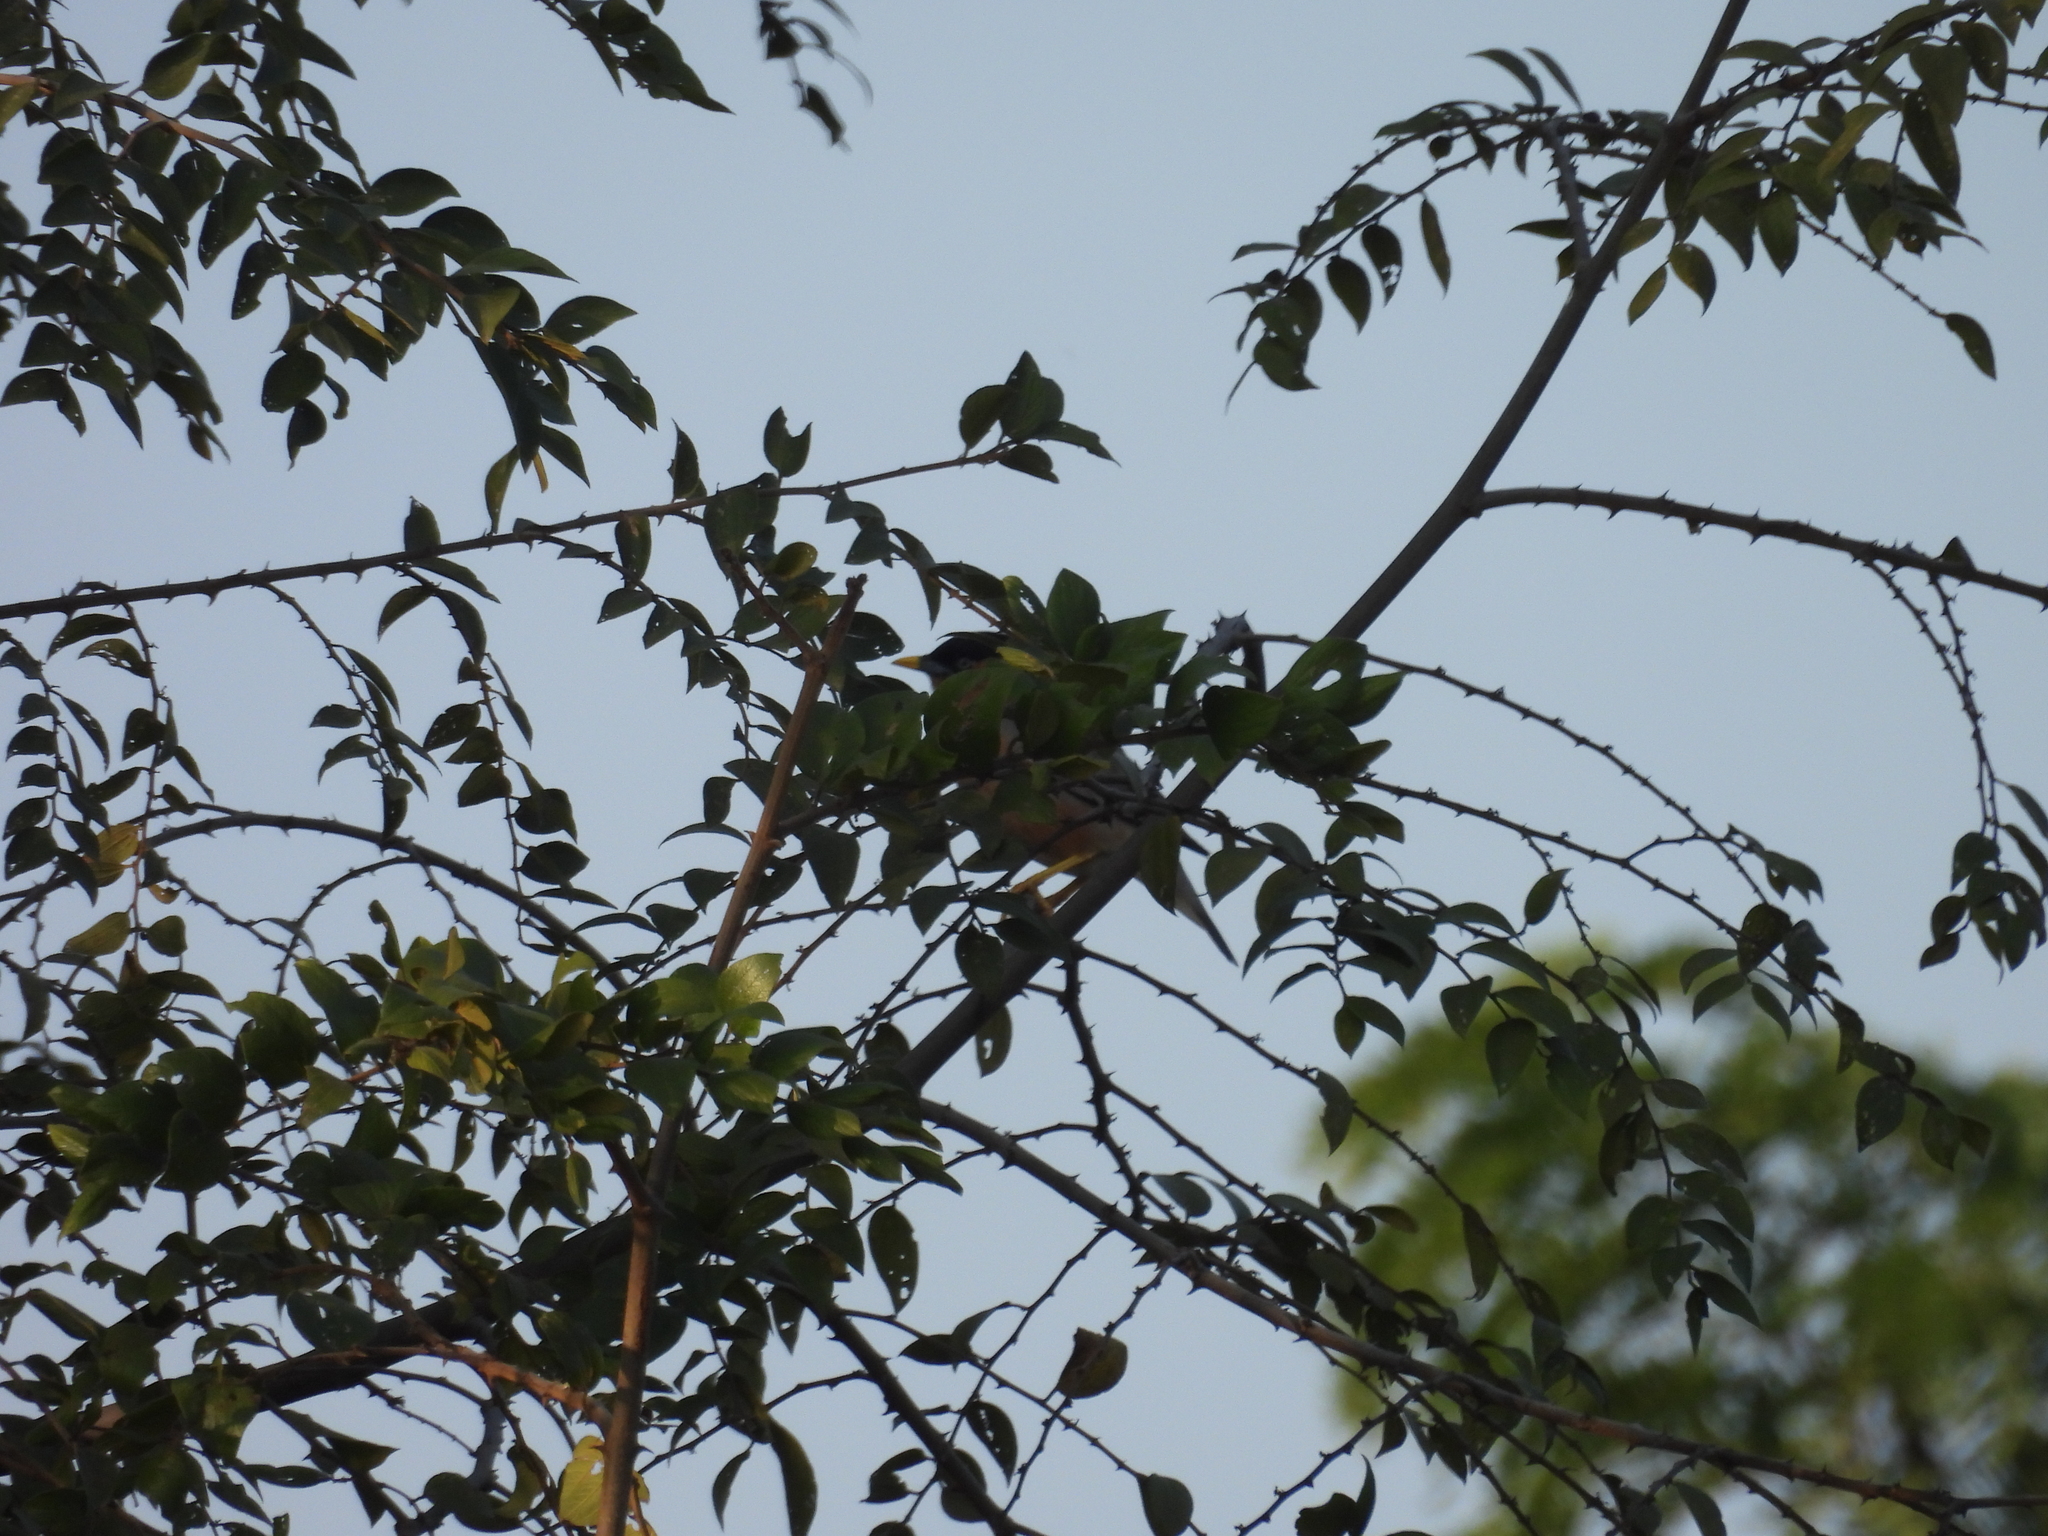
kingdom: Animalia
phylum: Chordata
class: Aves
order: Passeriformes
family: Sturnidae
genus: Sturnia
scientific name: Sturnia pagodarum
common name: Brahminy starling
